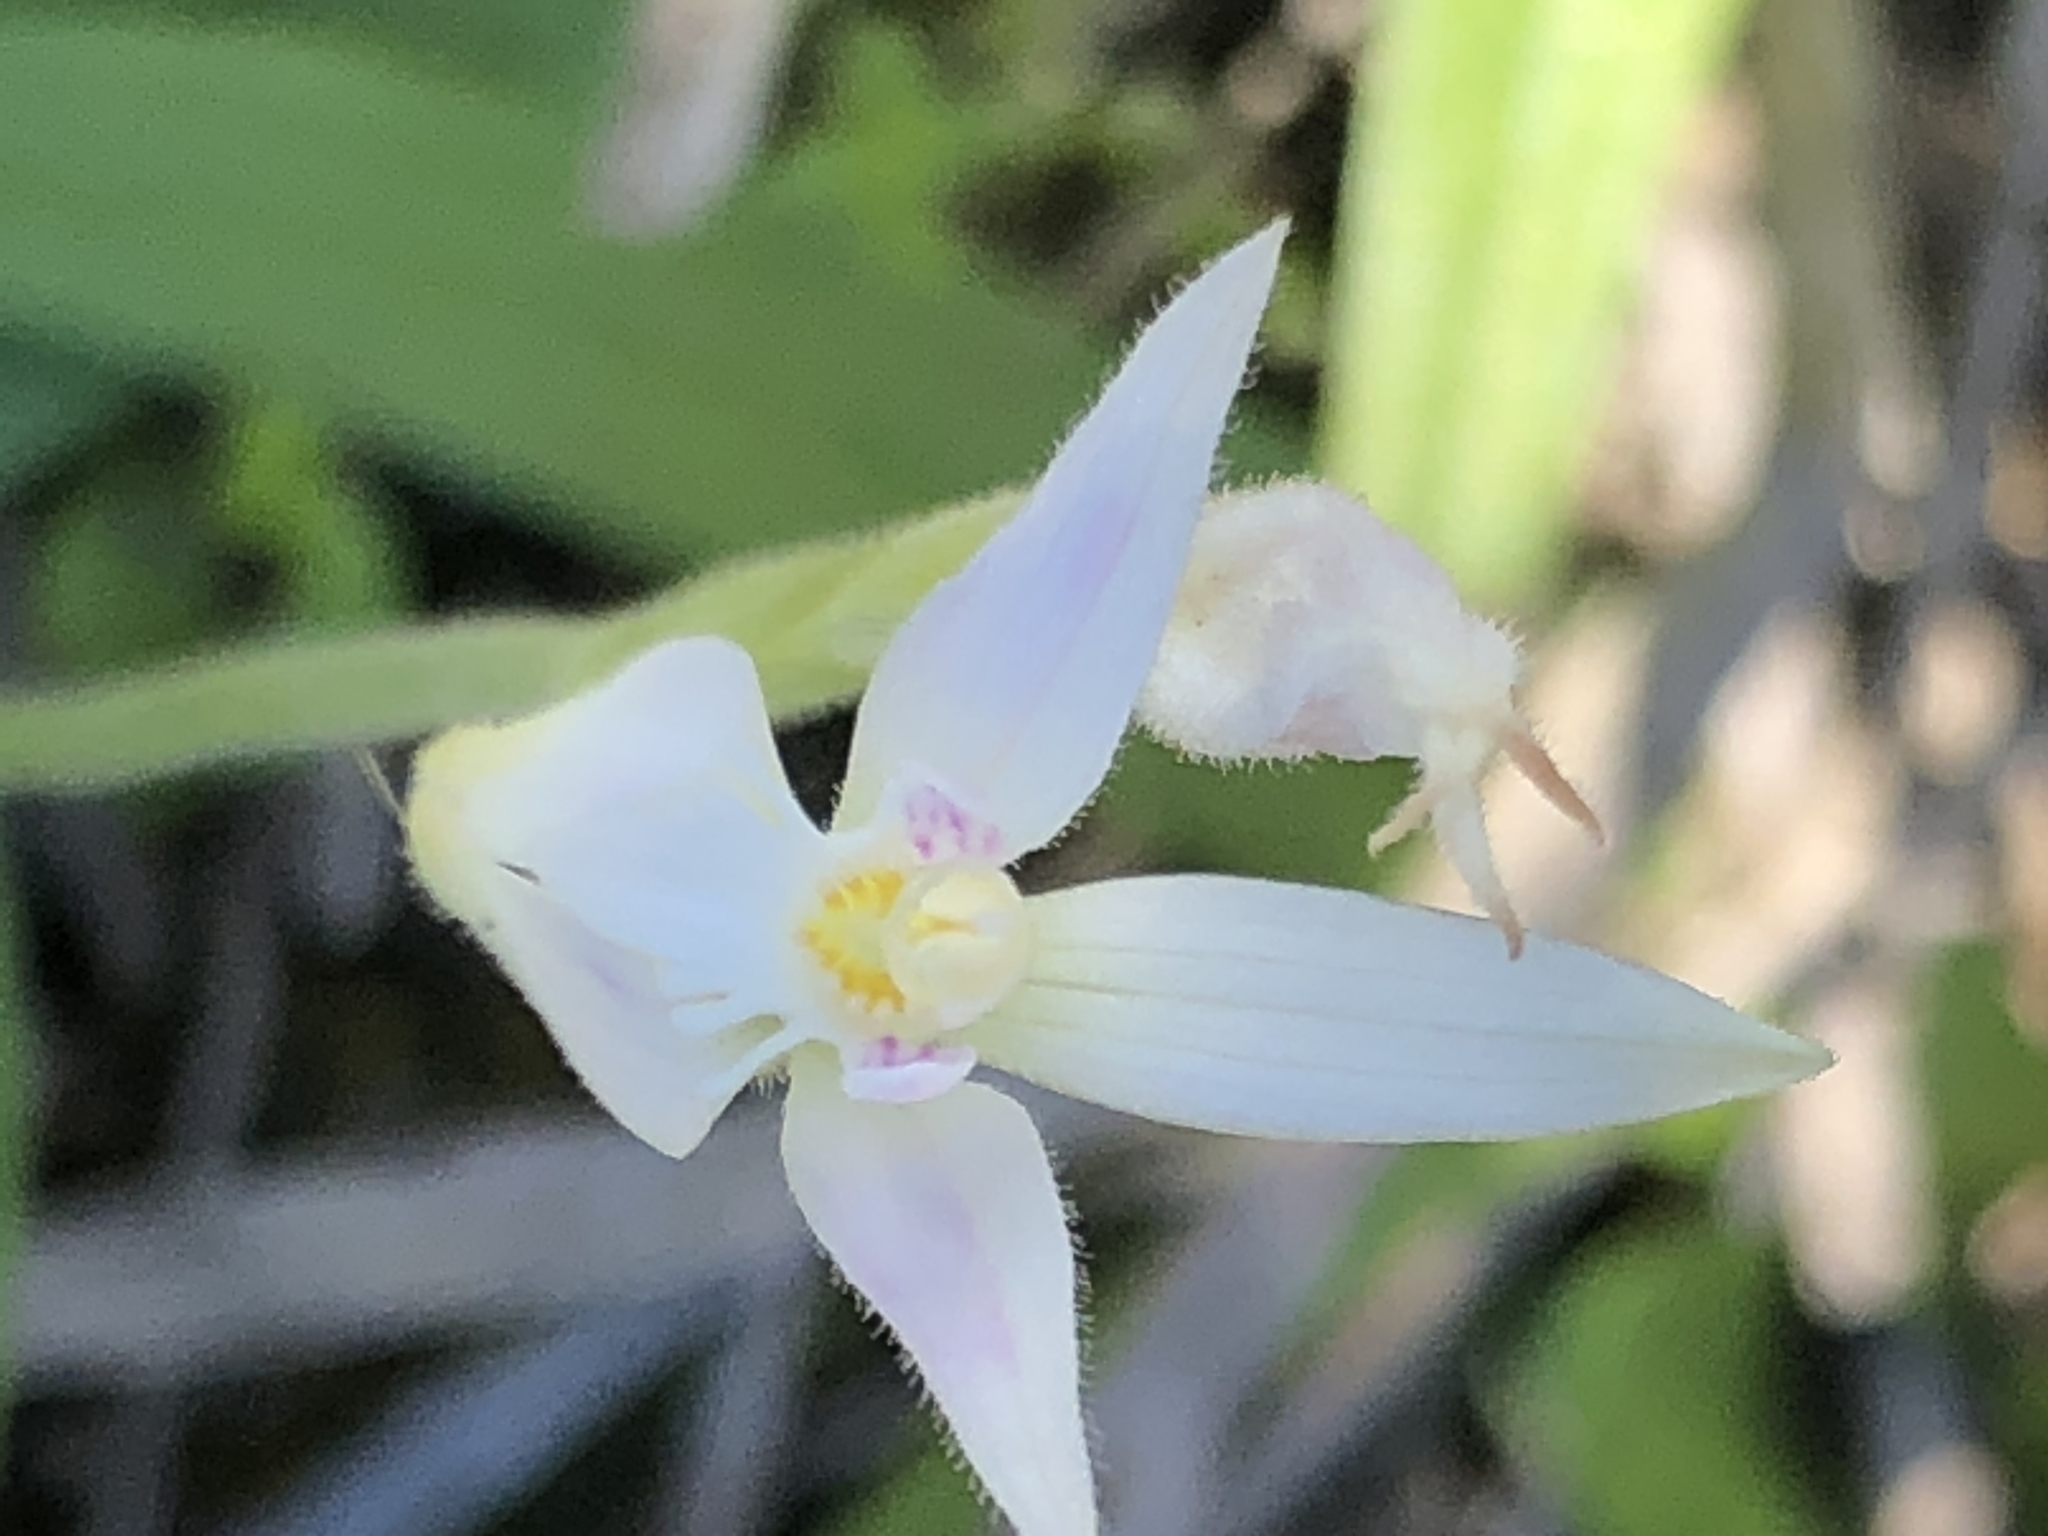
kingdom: Plantae
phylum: Tracheophyta
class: Liliopsida
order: Asparagales
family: Orchidaceae
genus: Caladenia
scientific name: Caladenia latifolia
